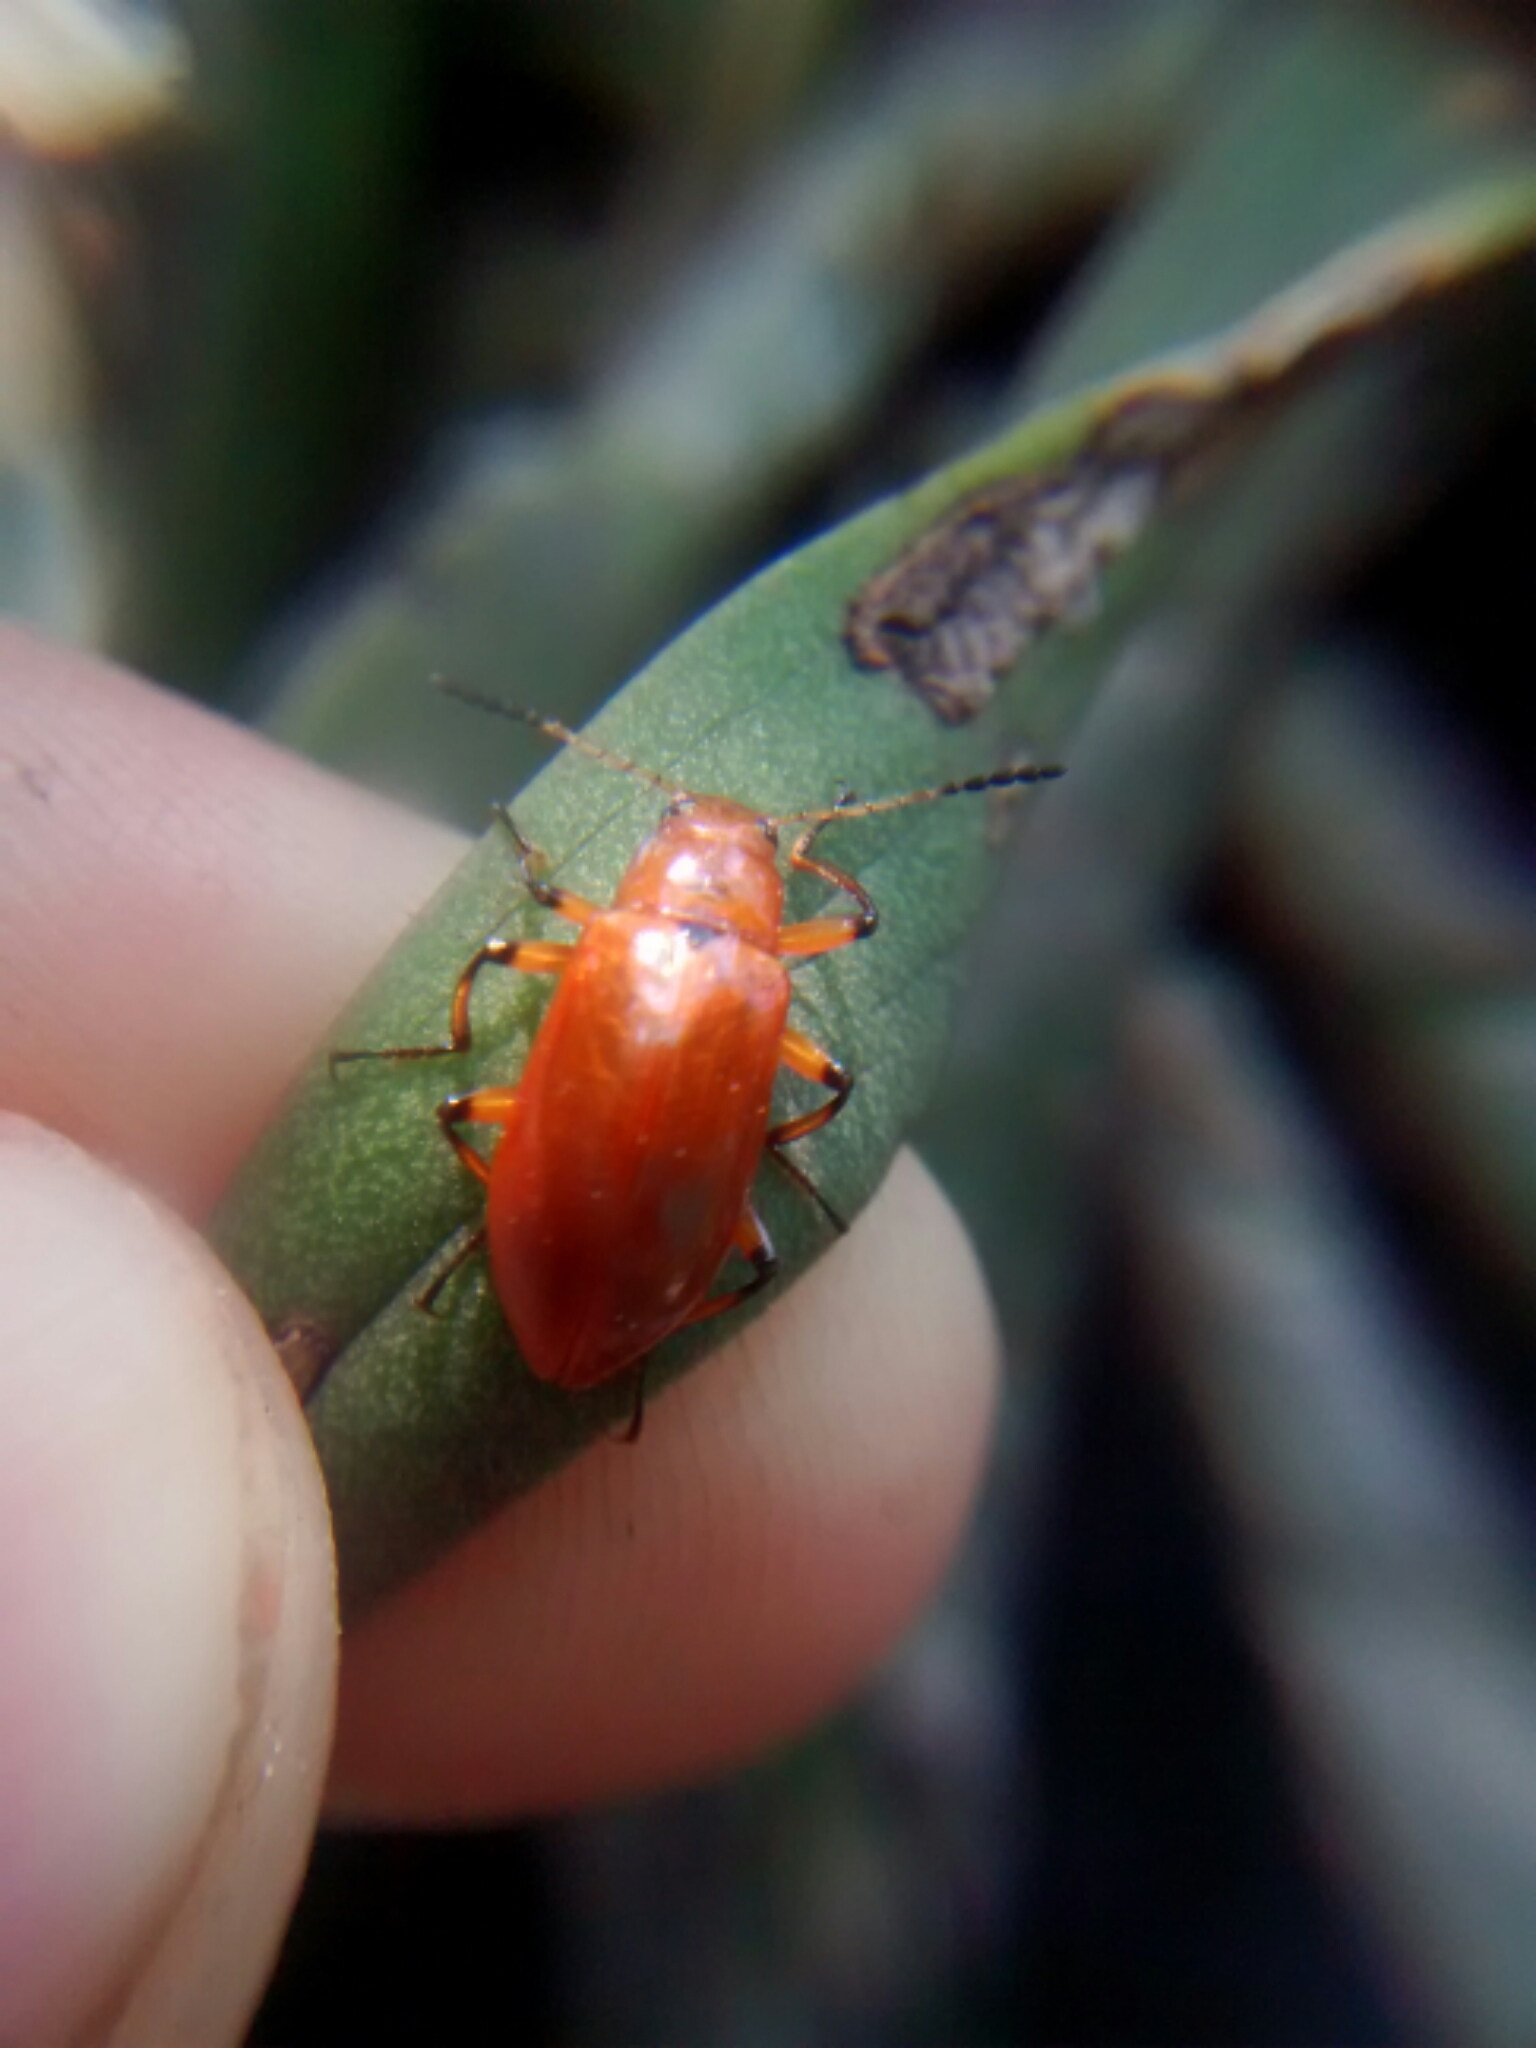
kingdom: Animalia
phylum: Arthropoda
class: Insecta
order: Coleoptera
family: Tenebrionidae
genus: Strongylium
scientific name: Strongylium hoepfneri
